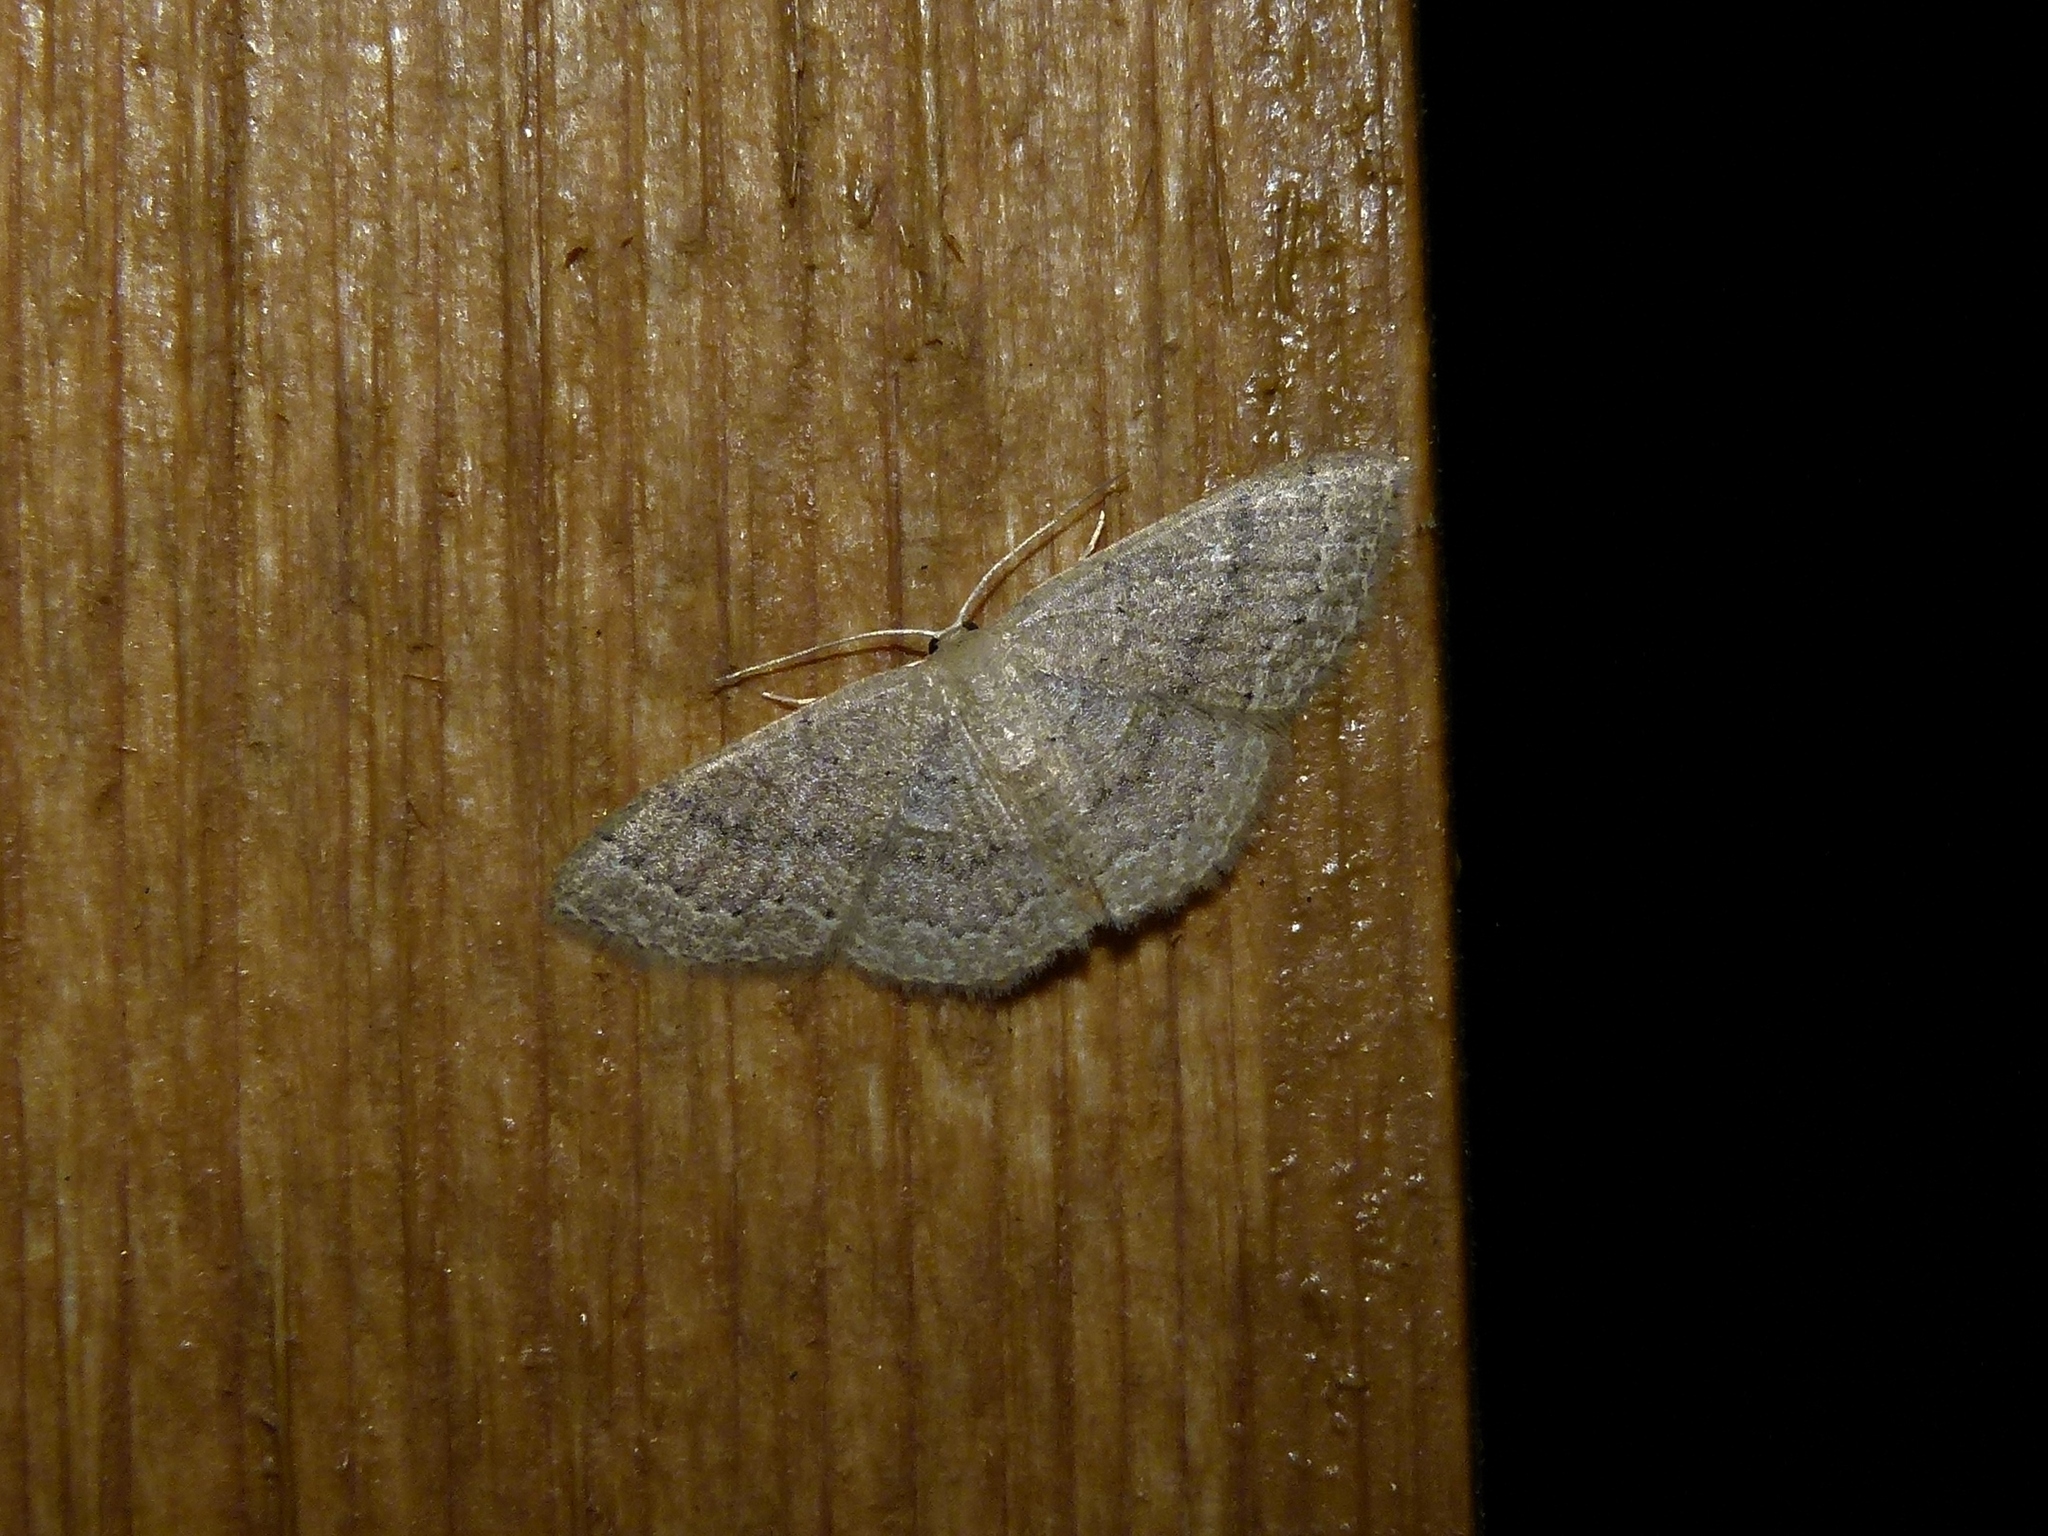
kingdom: Animalia
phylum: Arthropoda
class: Insecta
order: Lepidoptera
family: Geometridae
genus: Pleuroprucha
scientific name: Pleuroprucha insulsaria
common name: Common tan wave
